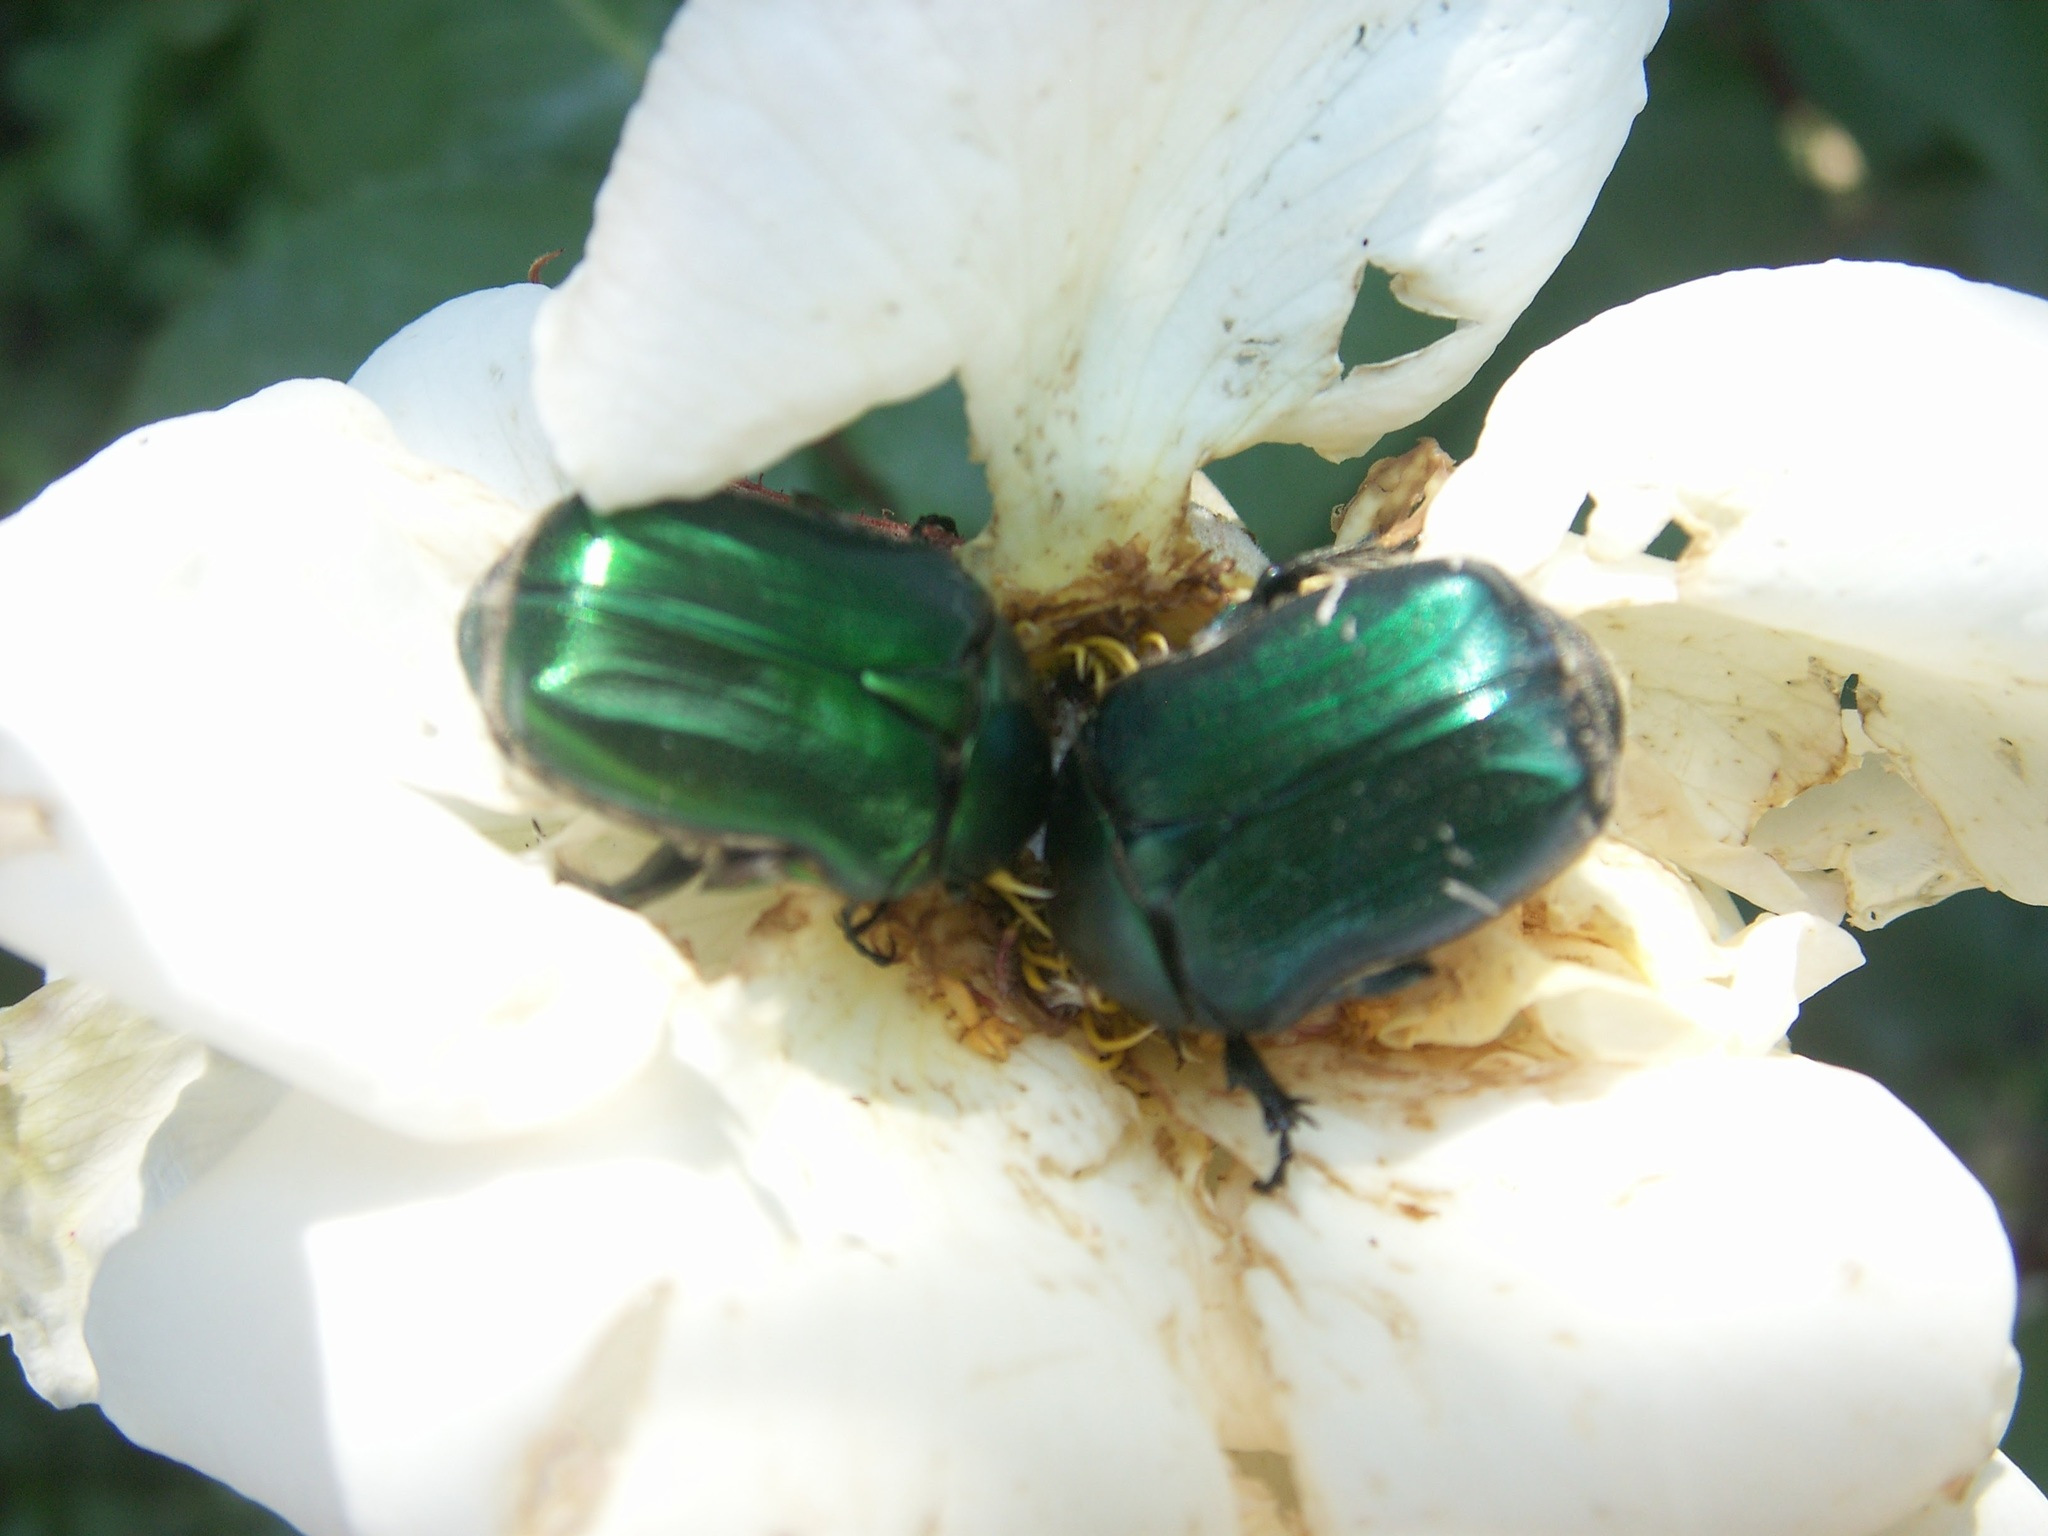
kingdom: Animalia
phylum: Arthropoda
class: Insecta
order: Coleoptera
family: Scarabaeidae
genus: Cetonia
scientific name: Cetonia aurata
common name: Rose chafer
